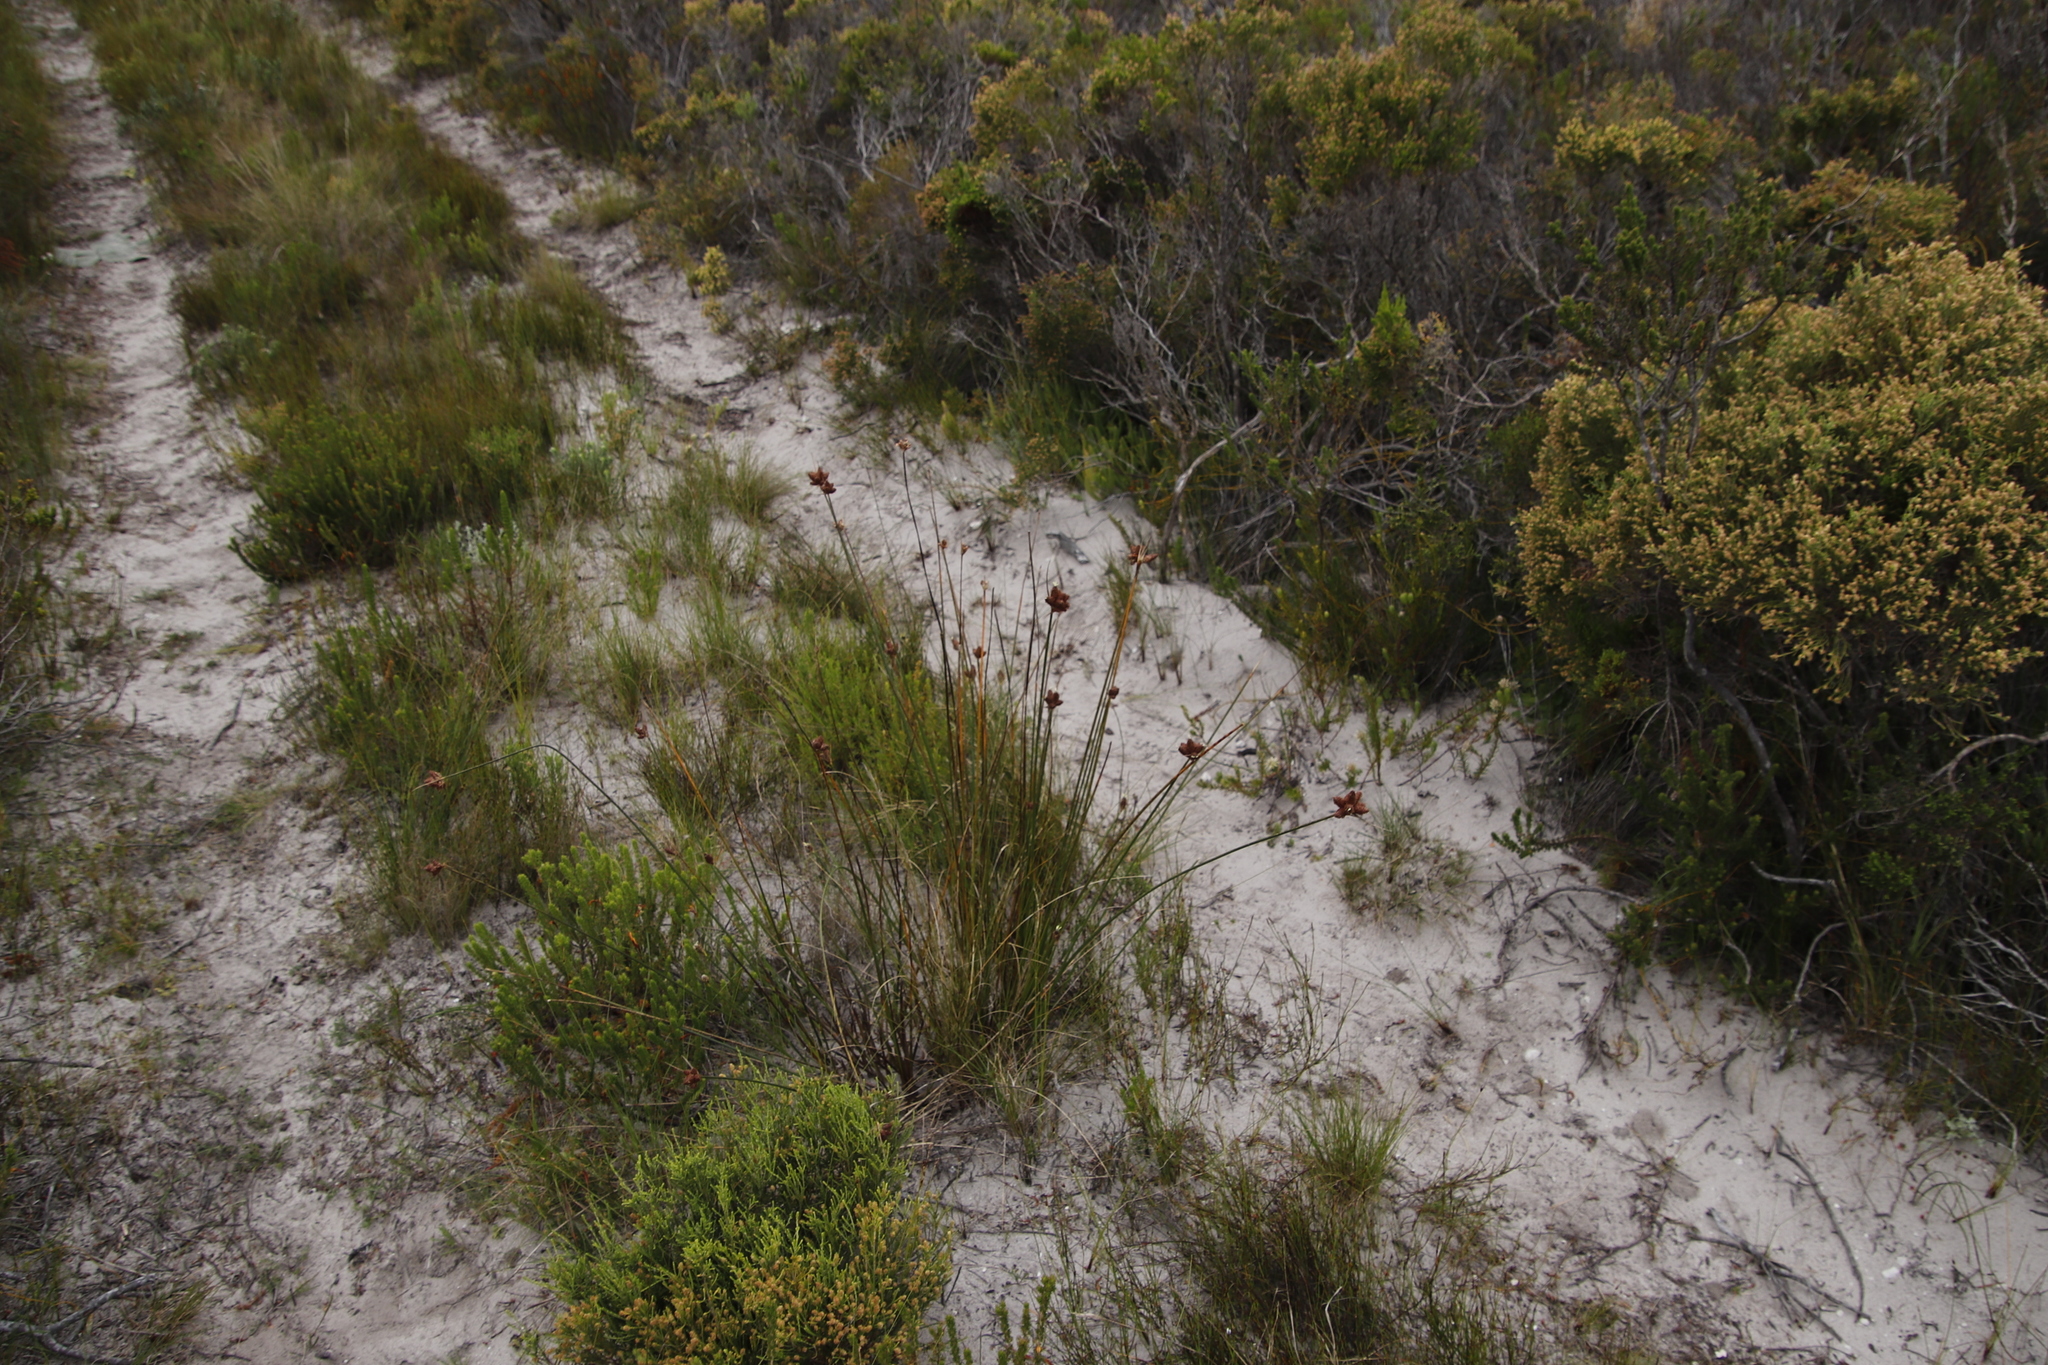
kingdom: Plantae
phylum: Tracheophyta
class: Liliopsida
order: Poales
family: Cyperaceae
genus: Ficinia
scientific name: Ficinia ecklonea
